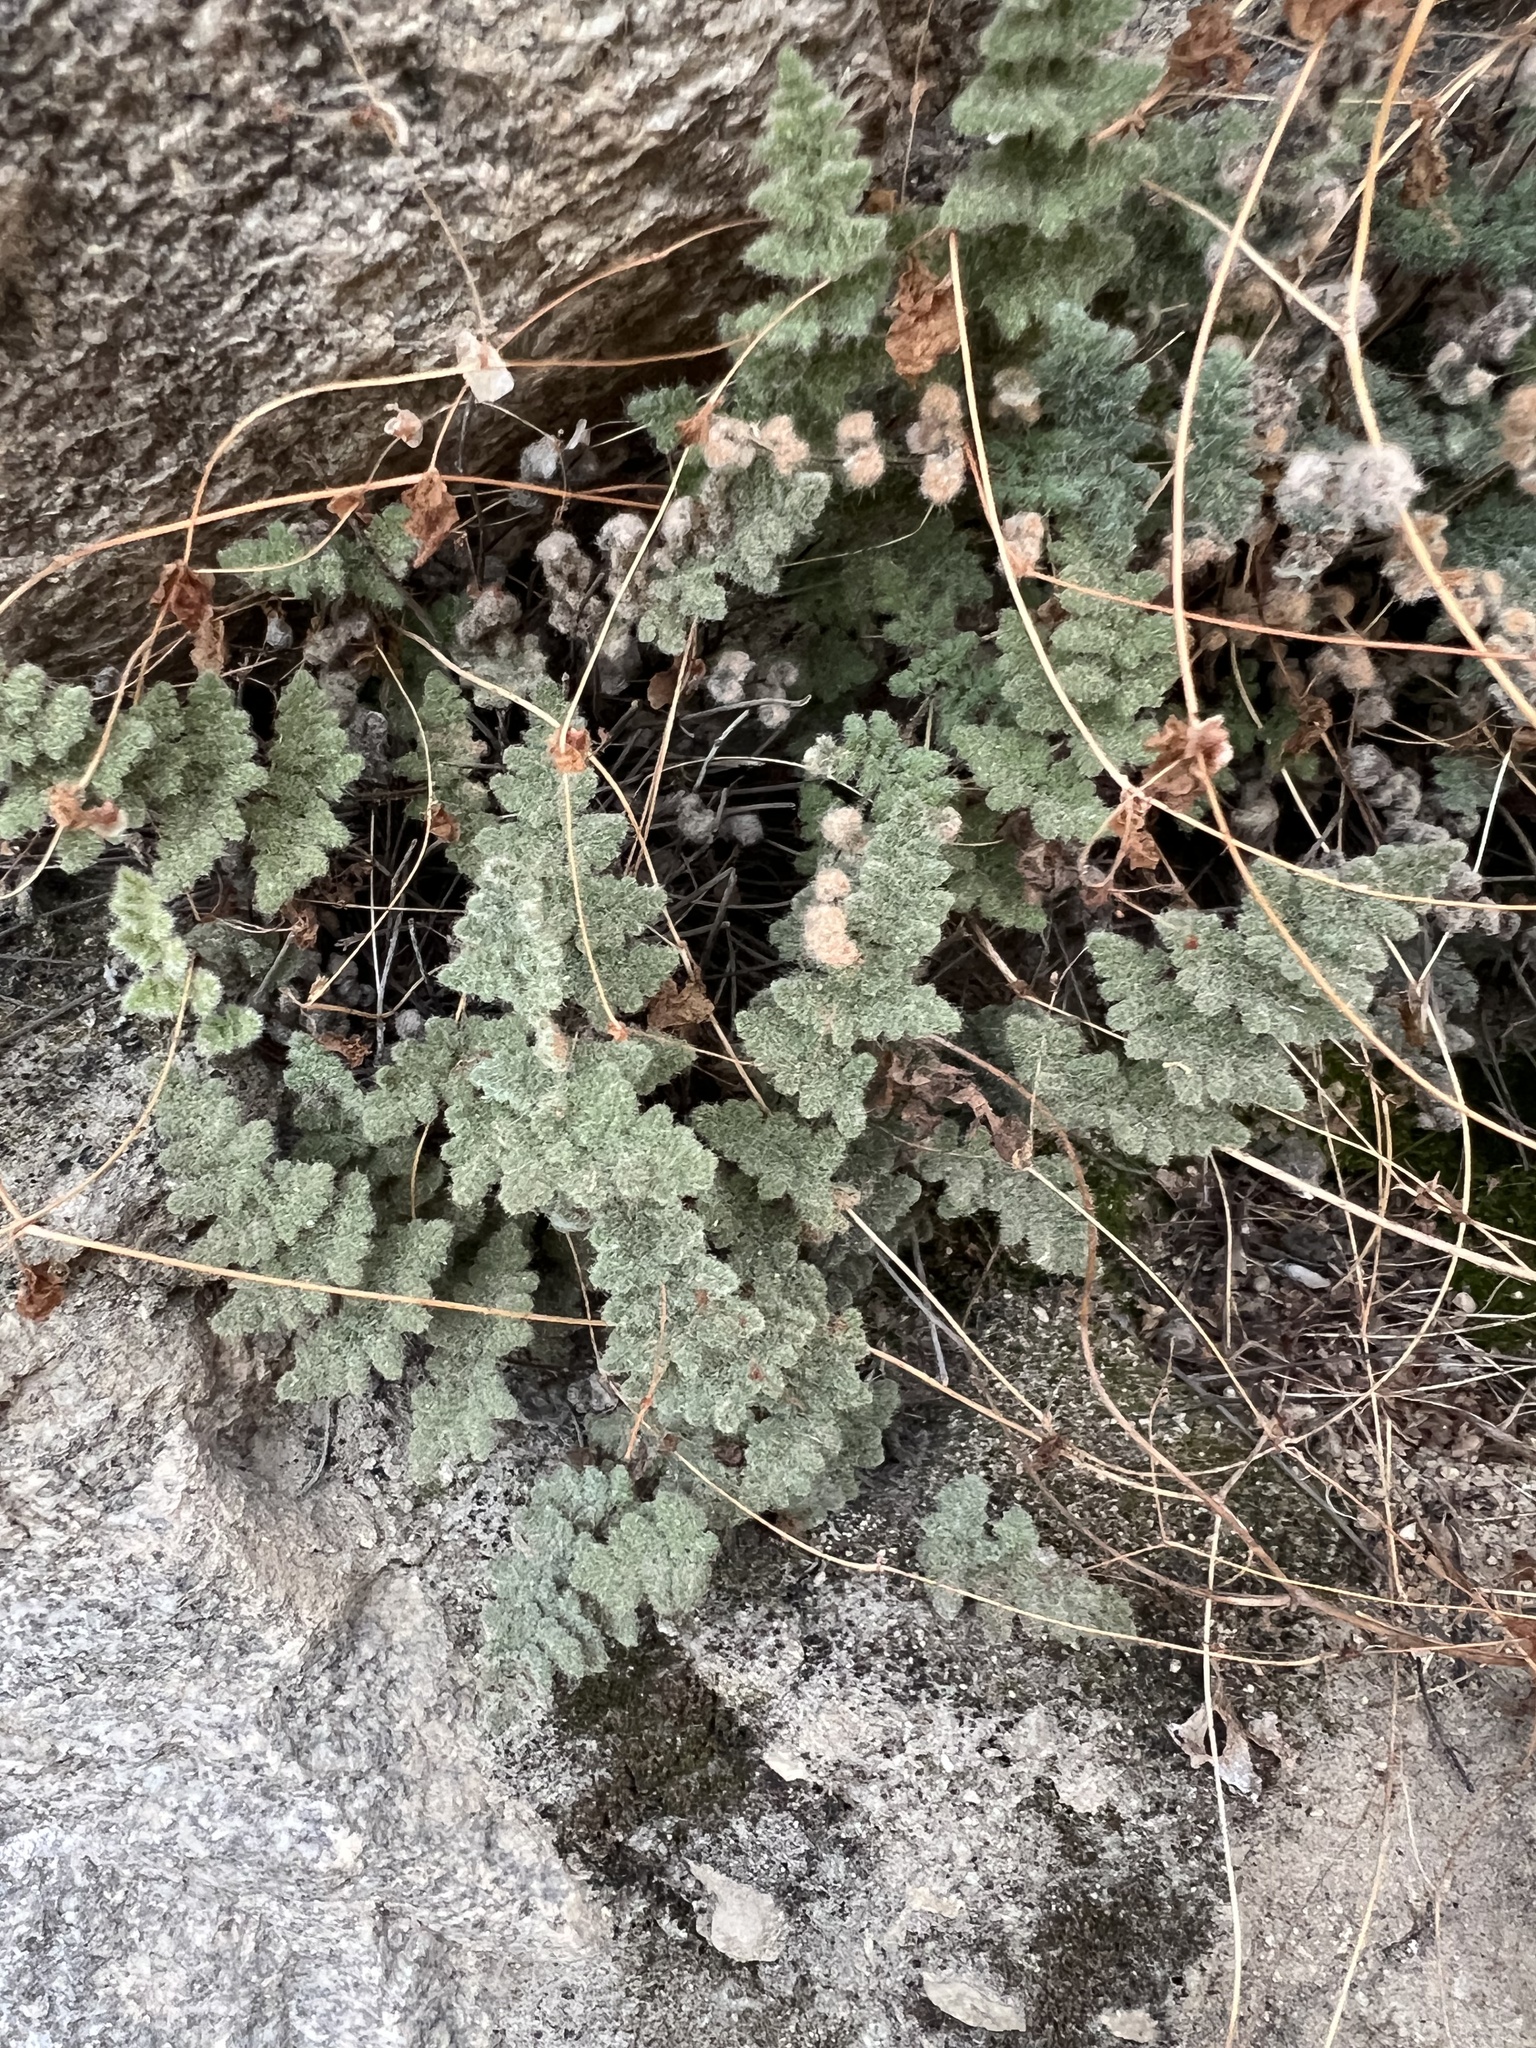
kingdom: Plantae
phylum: Tracheophyta
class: Polypodiopsida
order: Polypodiales
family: Pteridaceae
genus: Myriopteris
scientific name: Myriopteris parryi
